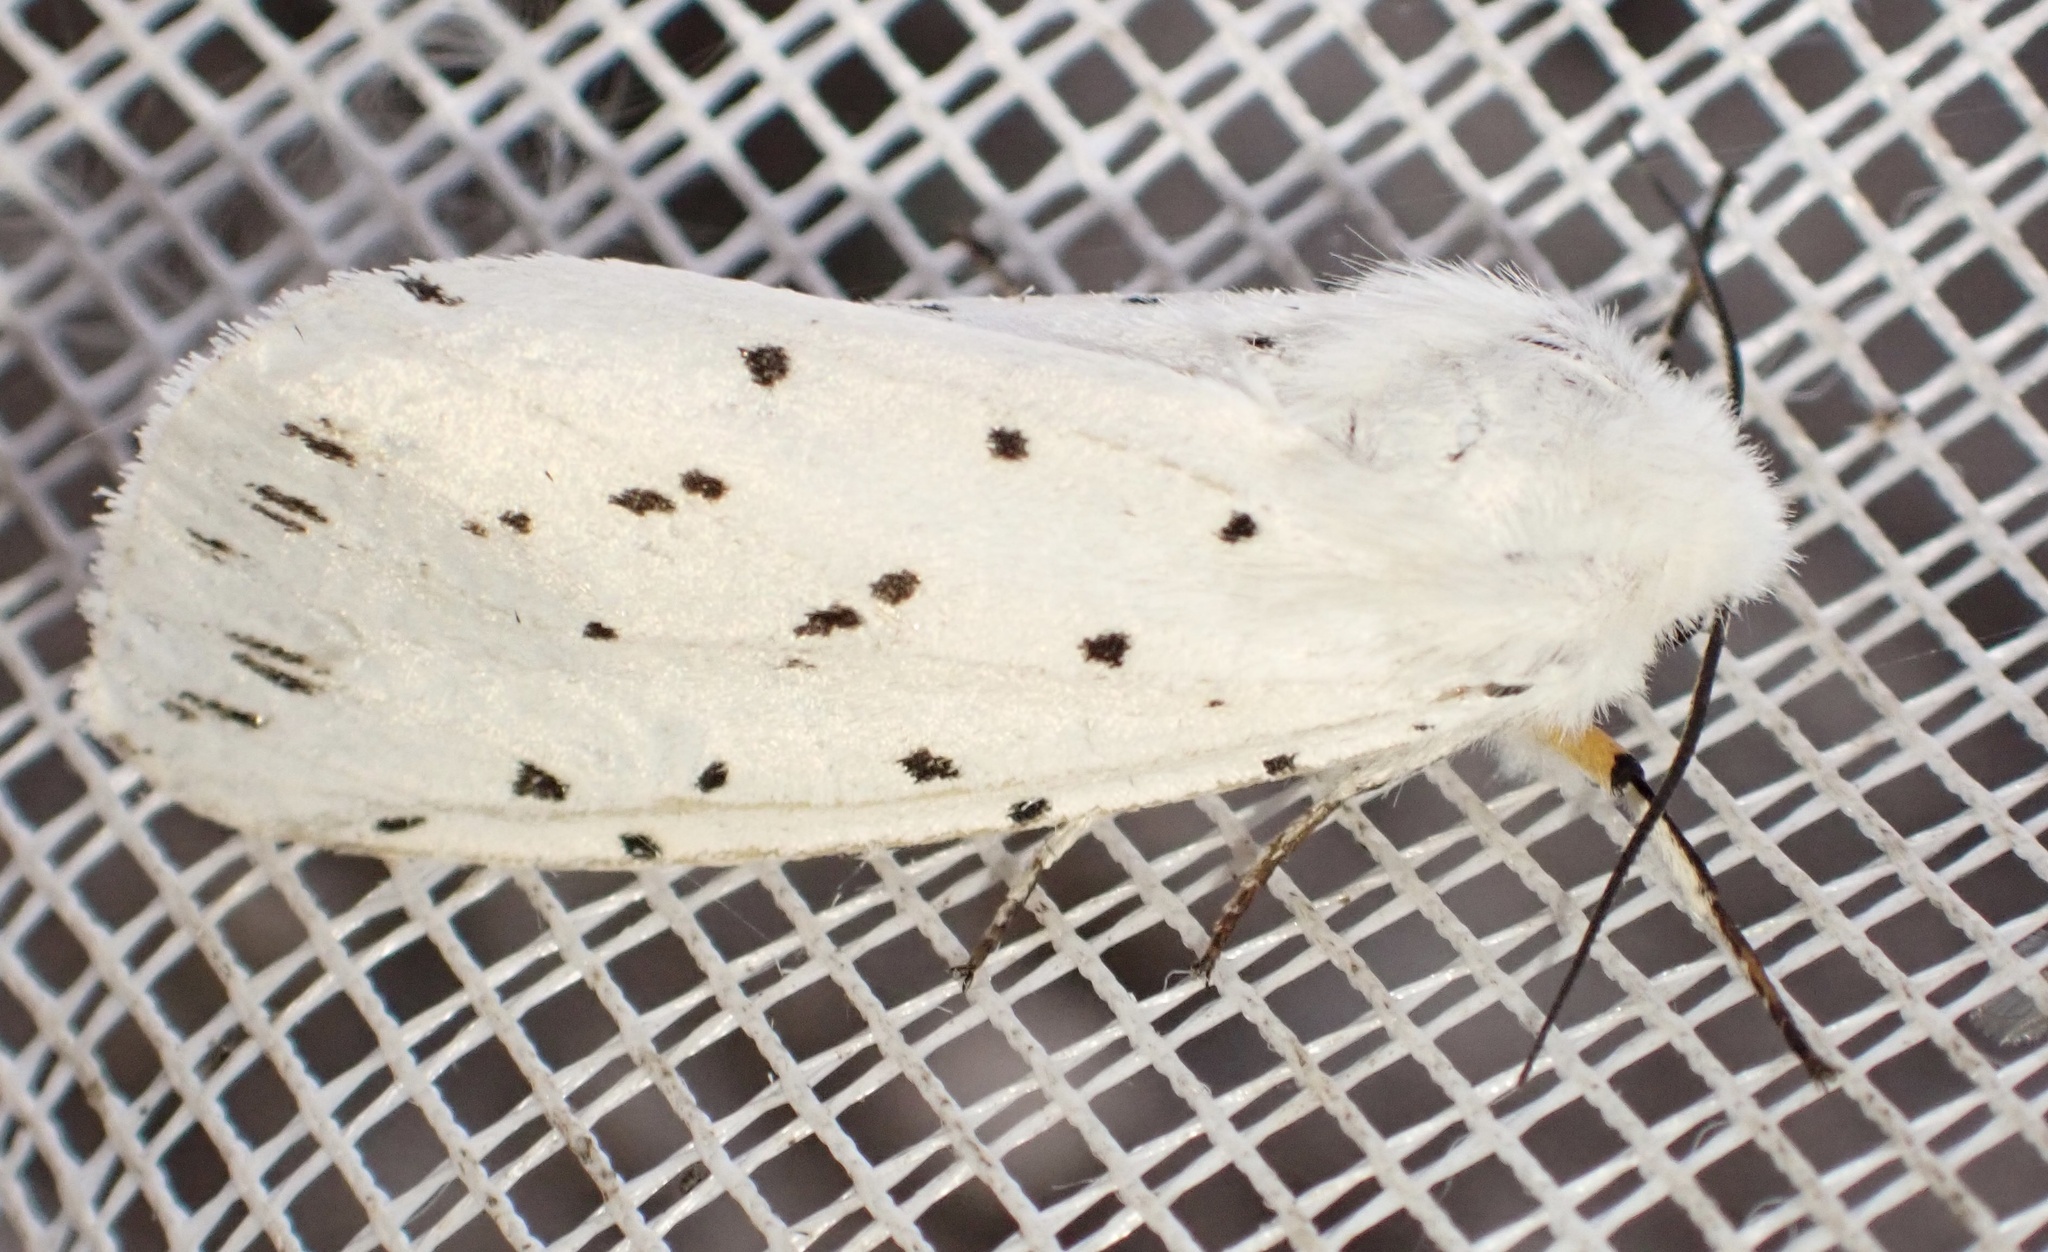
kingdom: Animalia
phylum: Arthropoda
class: Insecta
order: Lepidoptera
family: Erebidae
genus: Spilosoma
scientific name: Spilosoma lubricipeda
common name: White ermine
